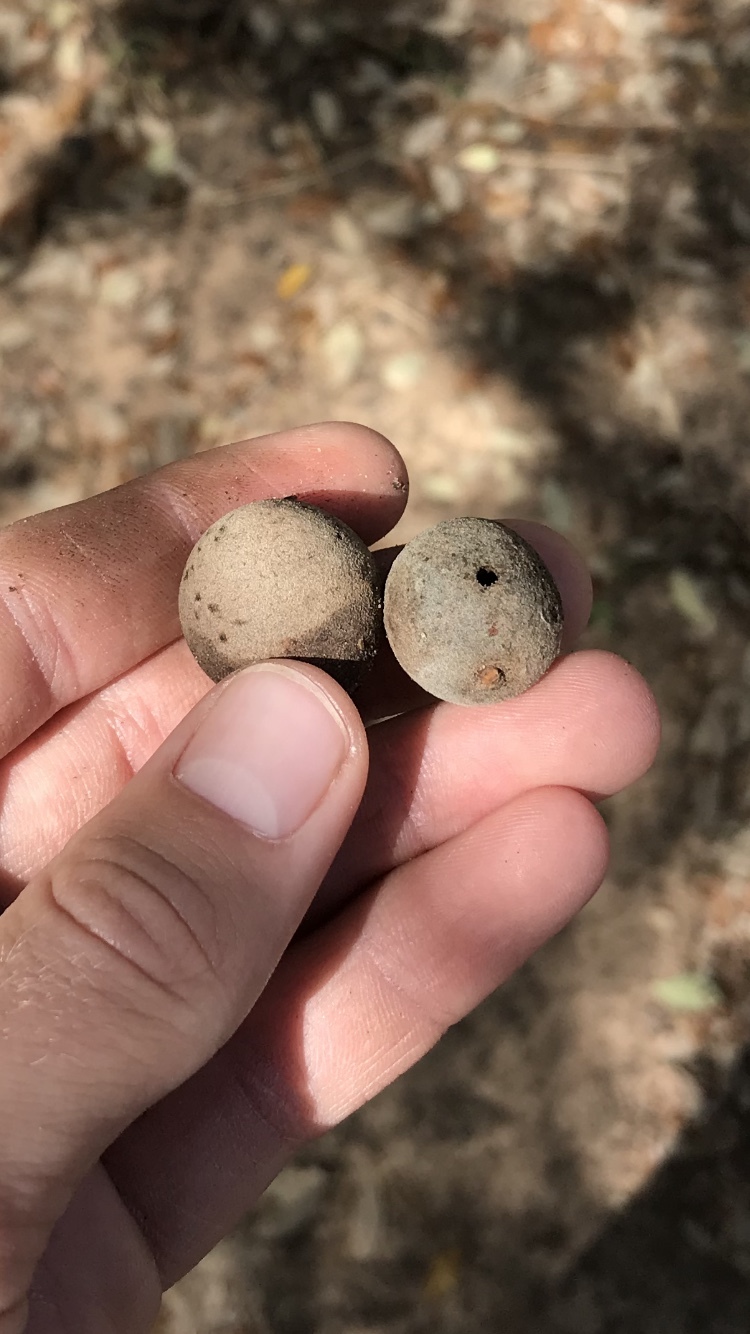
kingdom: Animalia
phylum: Arthropoda
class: Insecta
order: Hymenoptera
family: Cynipidae
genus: Disholcaspis
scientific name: Disholcaspis
